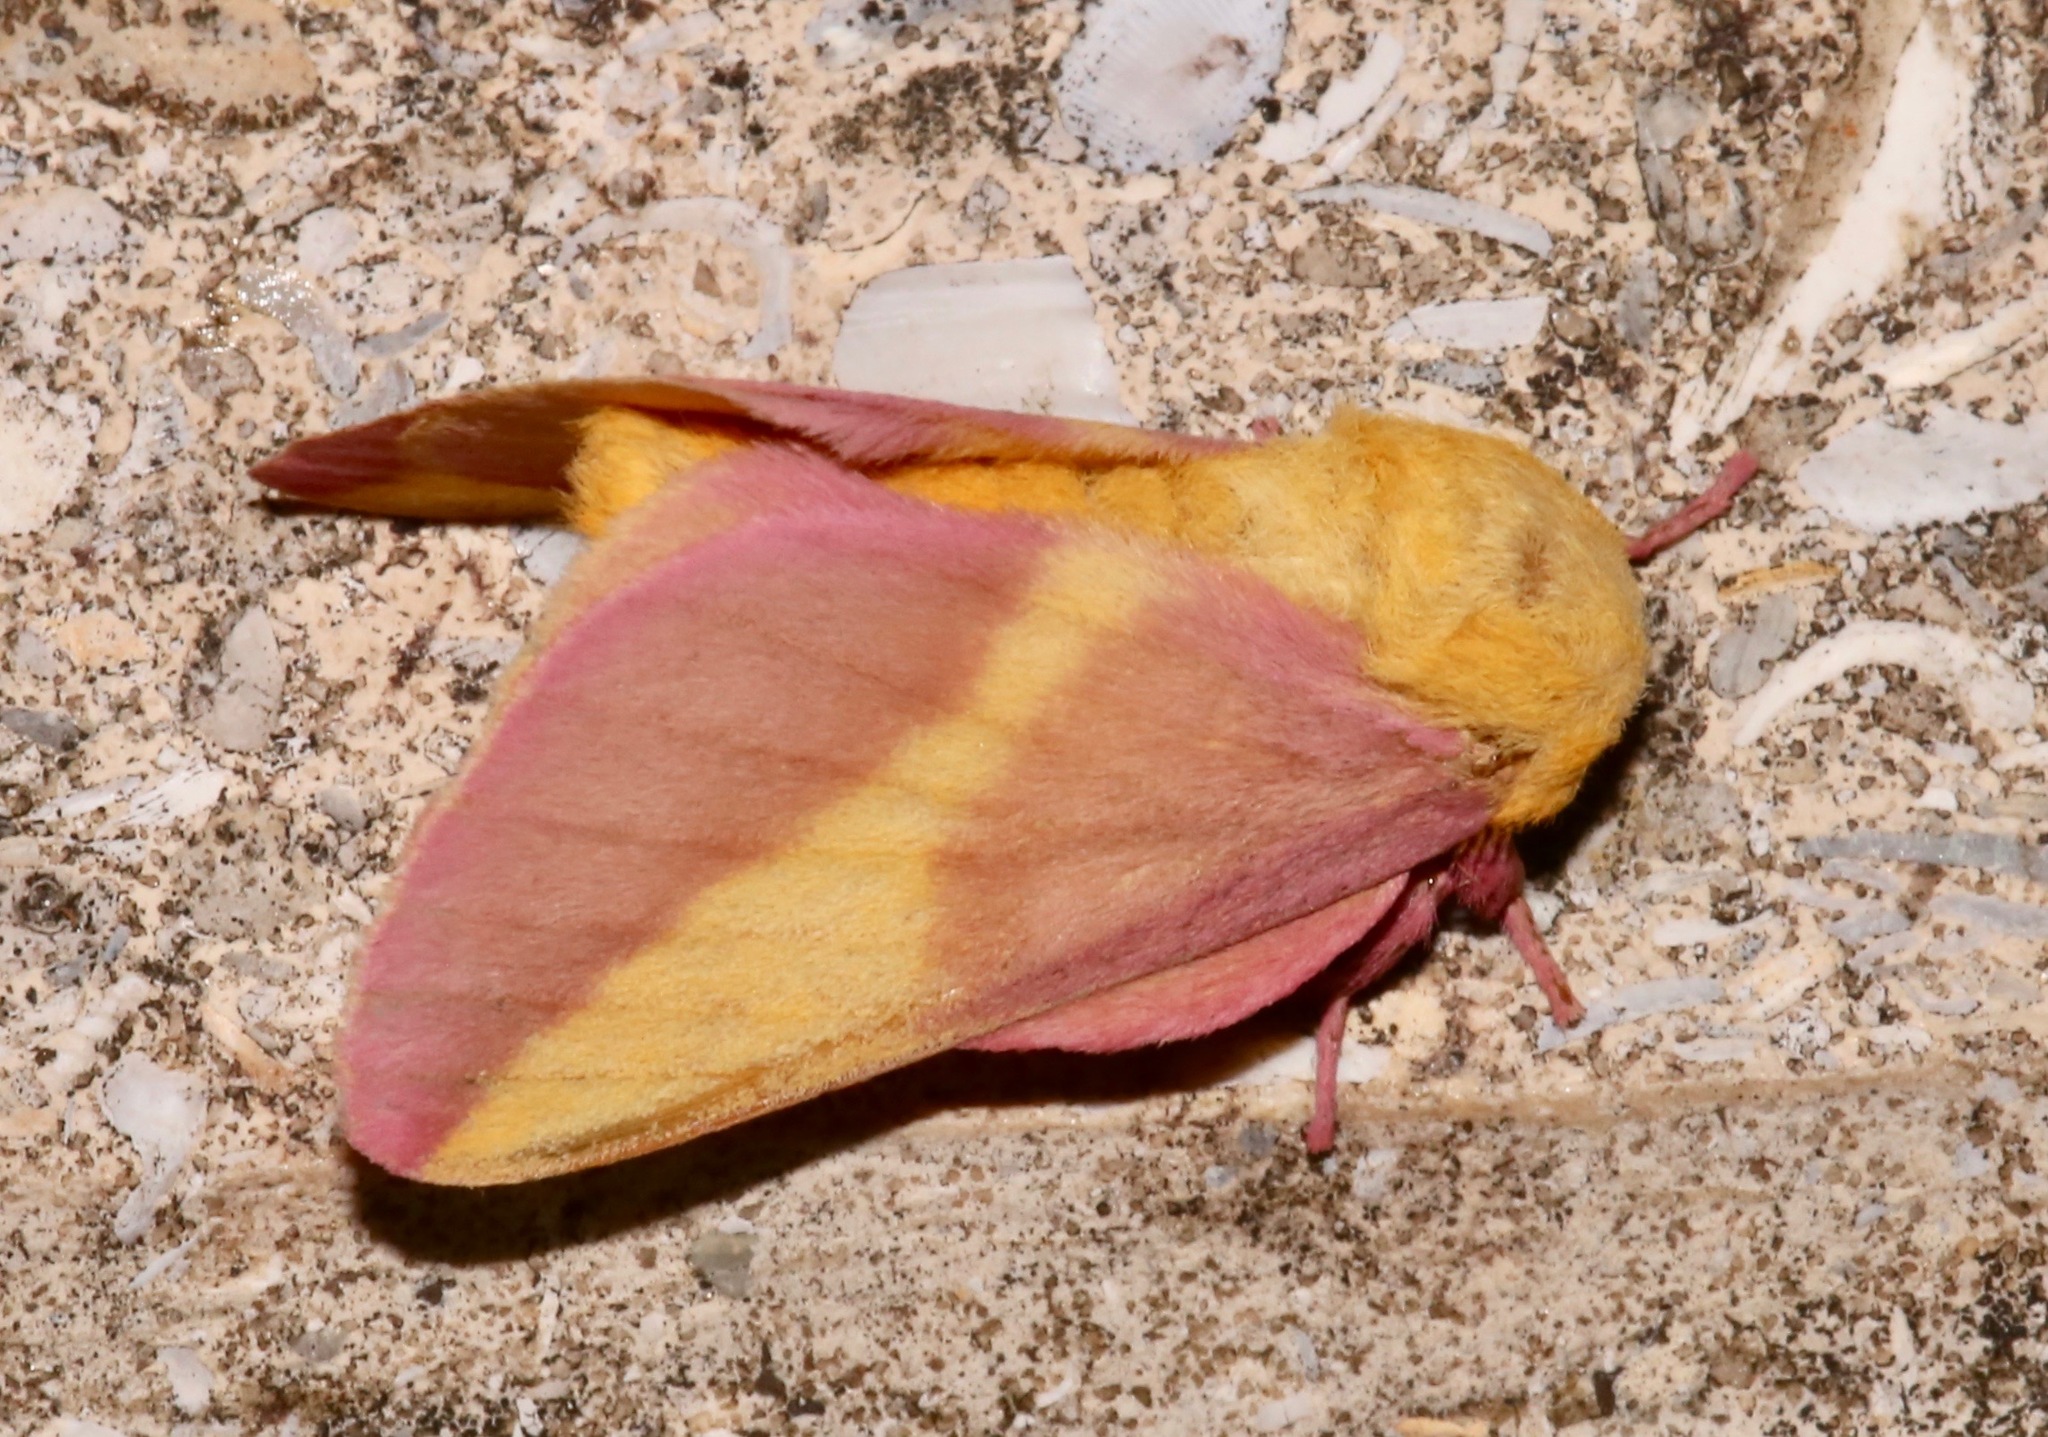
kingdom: Animalia
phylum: Arthropoda
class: Insecta
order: Lepidoptera
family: Saturniidae
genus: Dryocampa
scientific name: Dryocampa rubicunda
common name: Rosy maple moth
